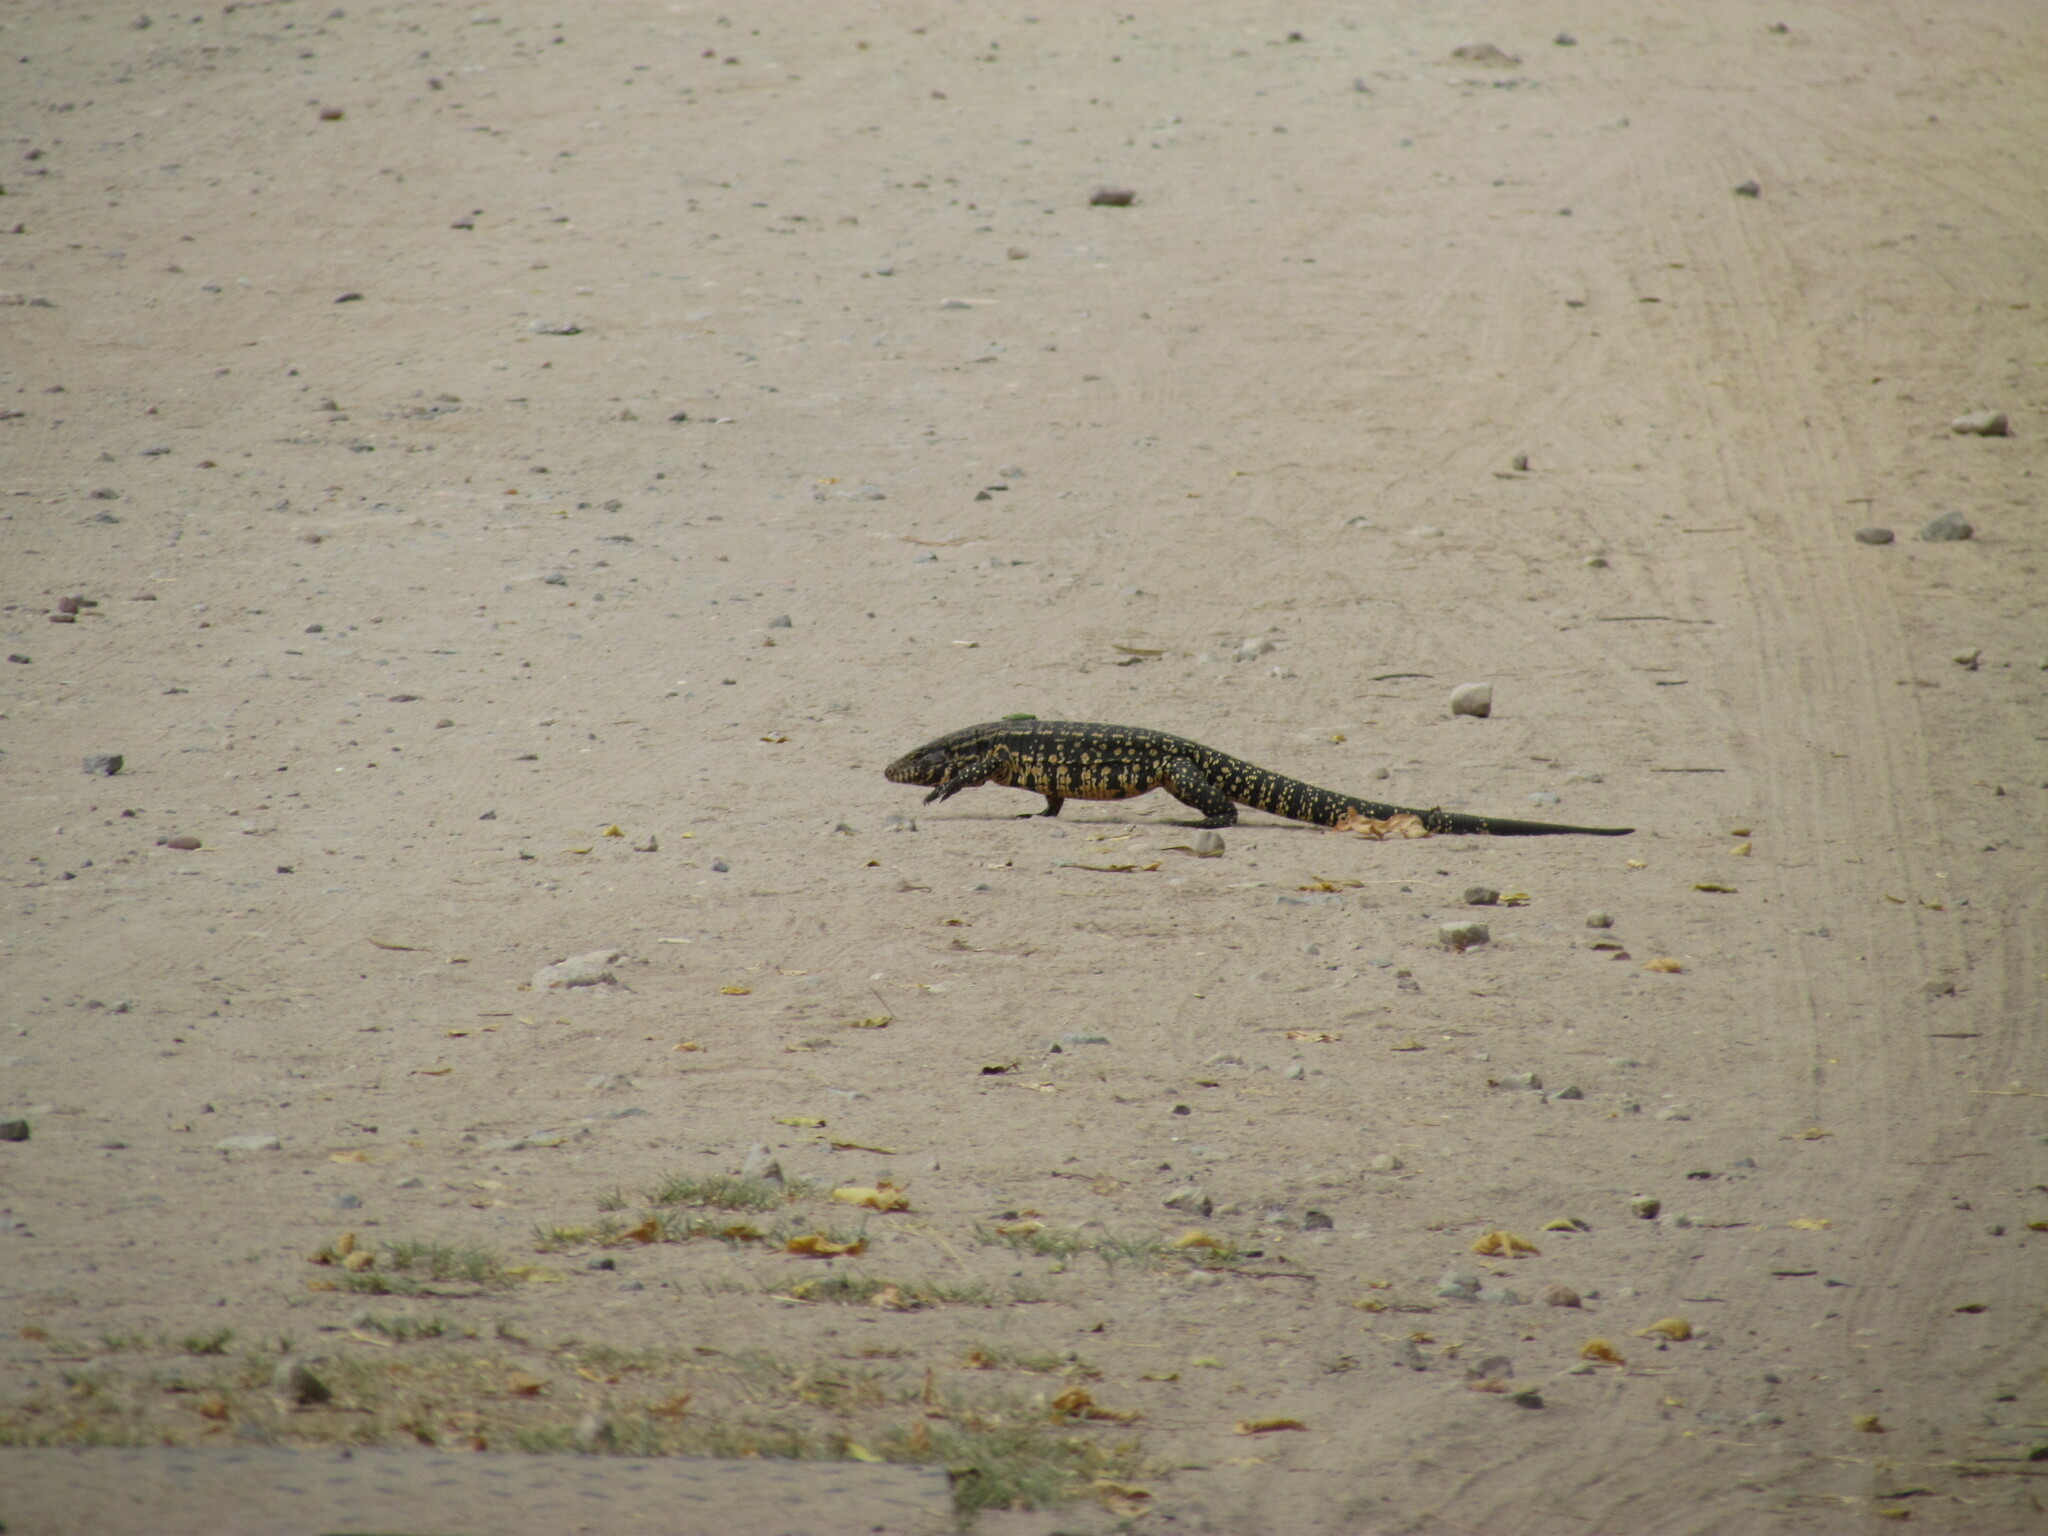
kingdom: Animalia
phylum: Chordata
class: Squamata
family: Teiidae
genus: Salvator
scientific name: Salvator merianae
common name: Argentine black and white tegu
